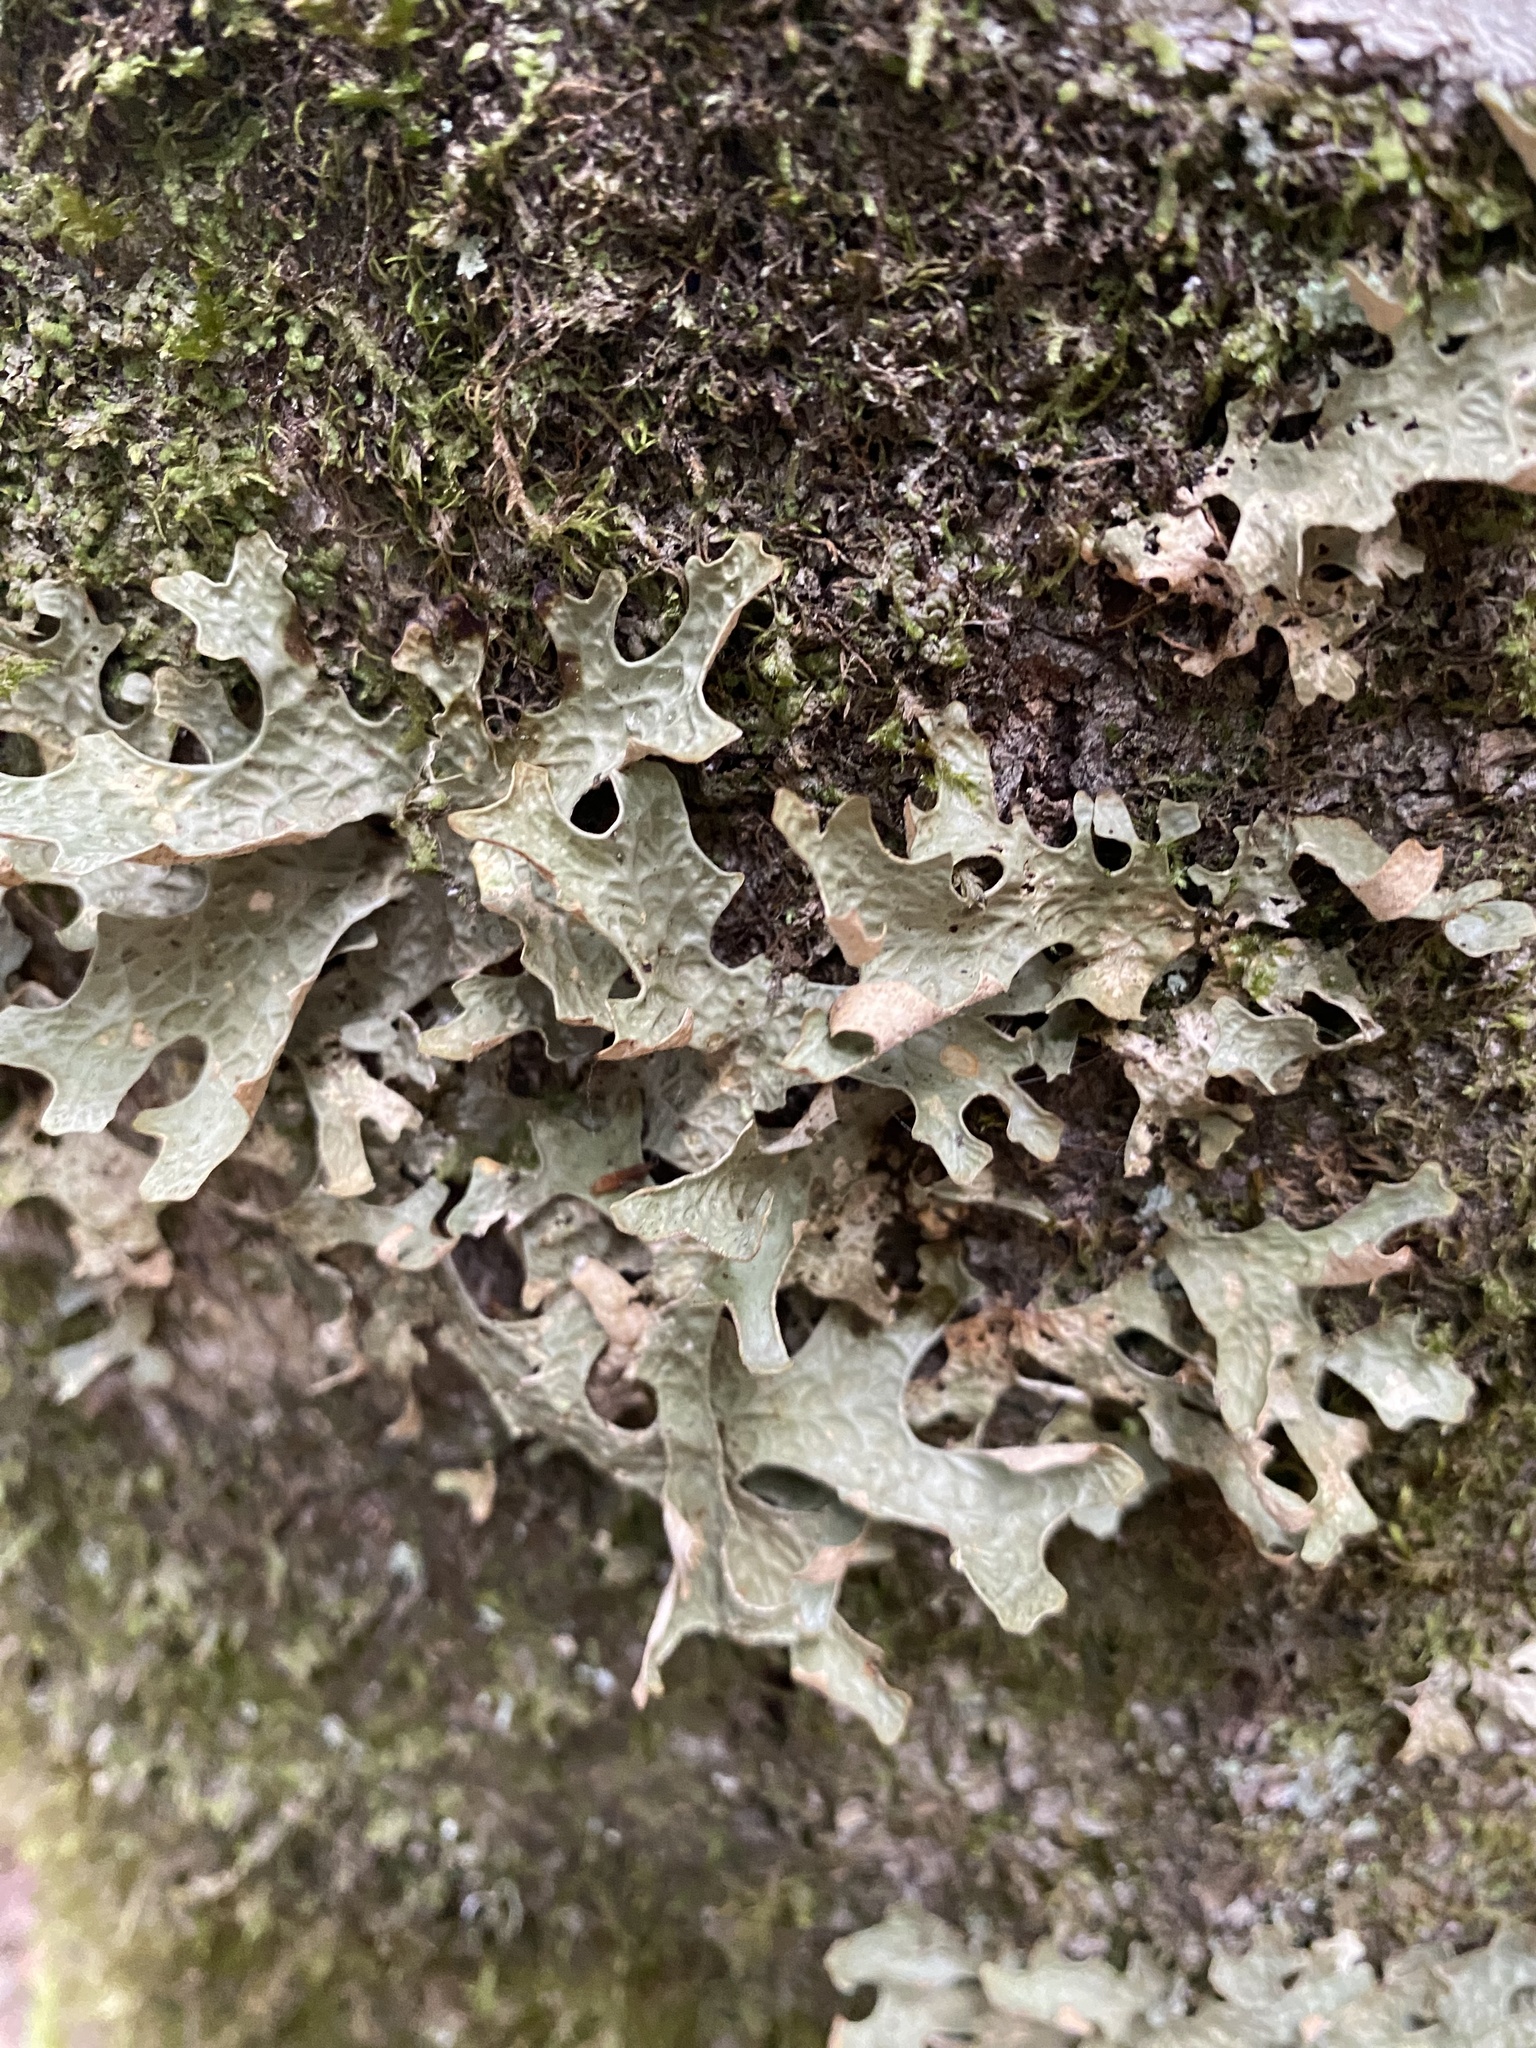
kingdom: Fungi
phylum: Ascomycota
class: Lecanoromycetes
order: Peltigerales
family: Lobariaceae
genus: Lobaria
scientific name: Lobaria pulmonaria
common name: Lungwort
